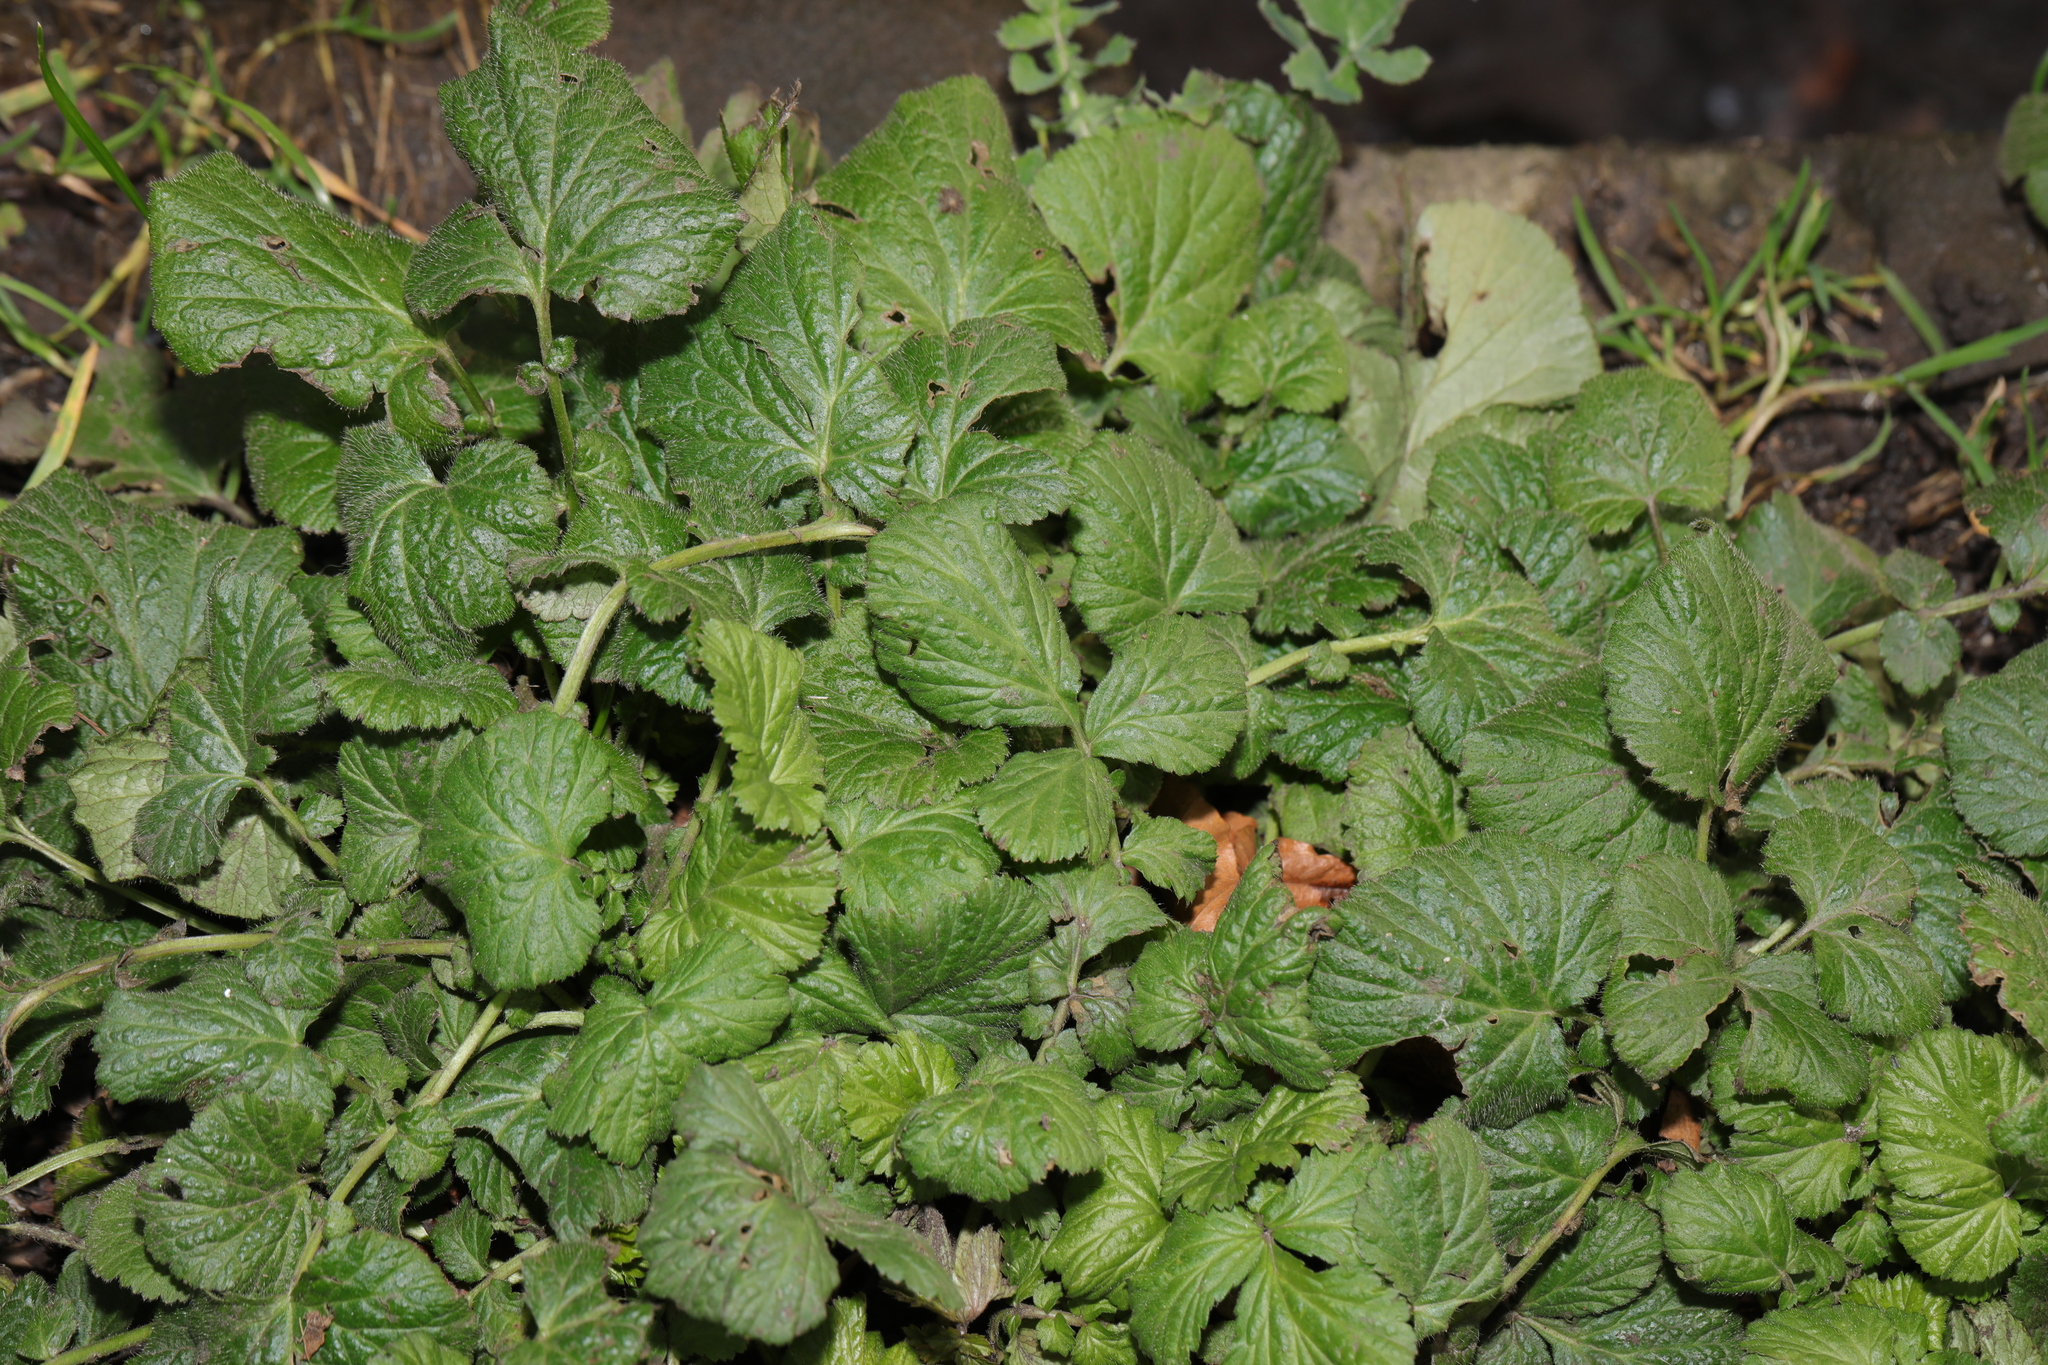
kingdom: Plantae
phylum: Tracheophyta
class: Magnoliopsida
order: Rosales
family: Rosaceae
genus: Geum
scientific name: Geum urbanum
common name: Wood avens
